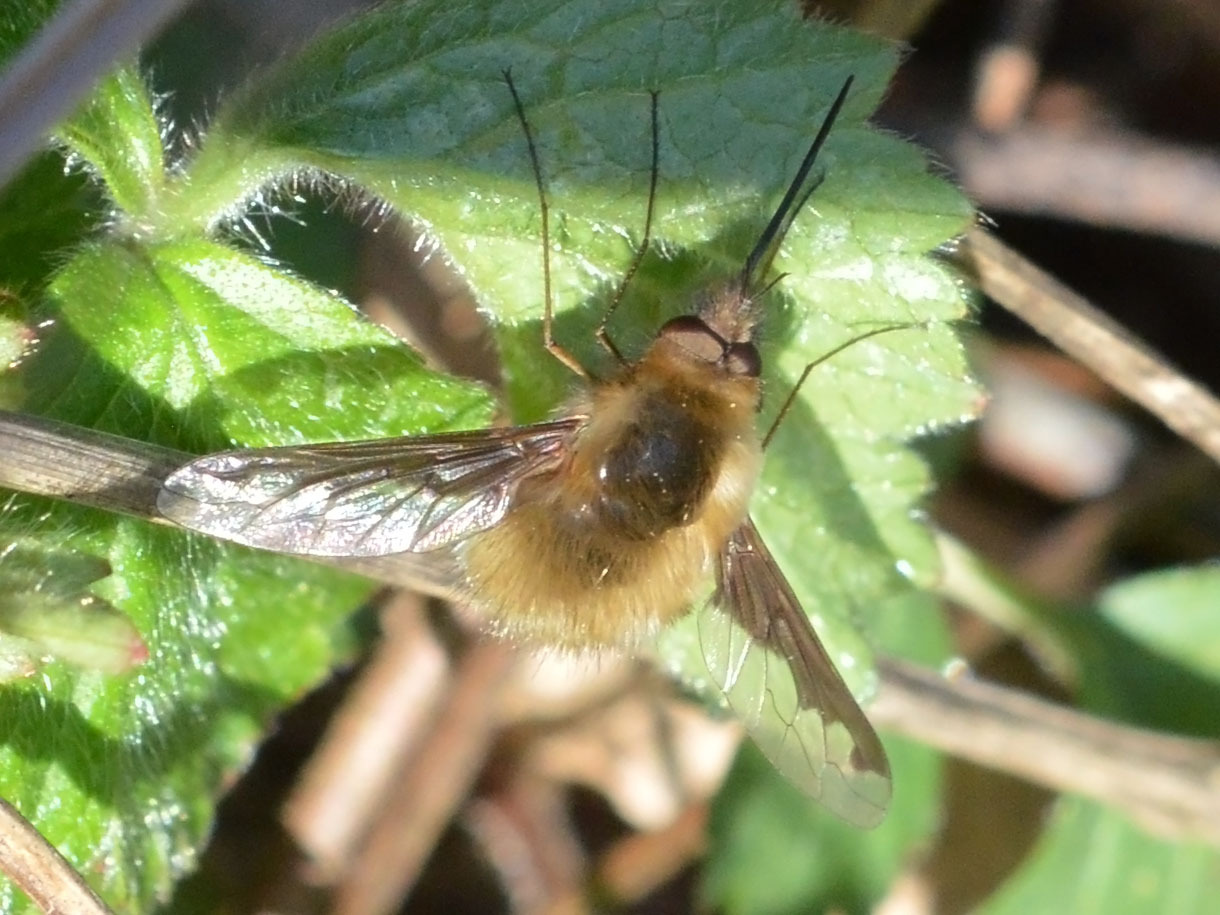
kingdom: Animalia
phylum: Arthropoda
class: Insecta
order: Diptera
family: Bombyliidae
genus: Bombylius
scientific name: Bombylius major
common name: Bee fly
